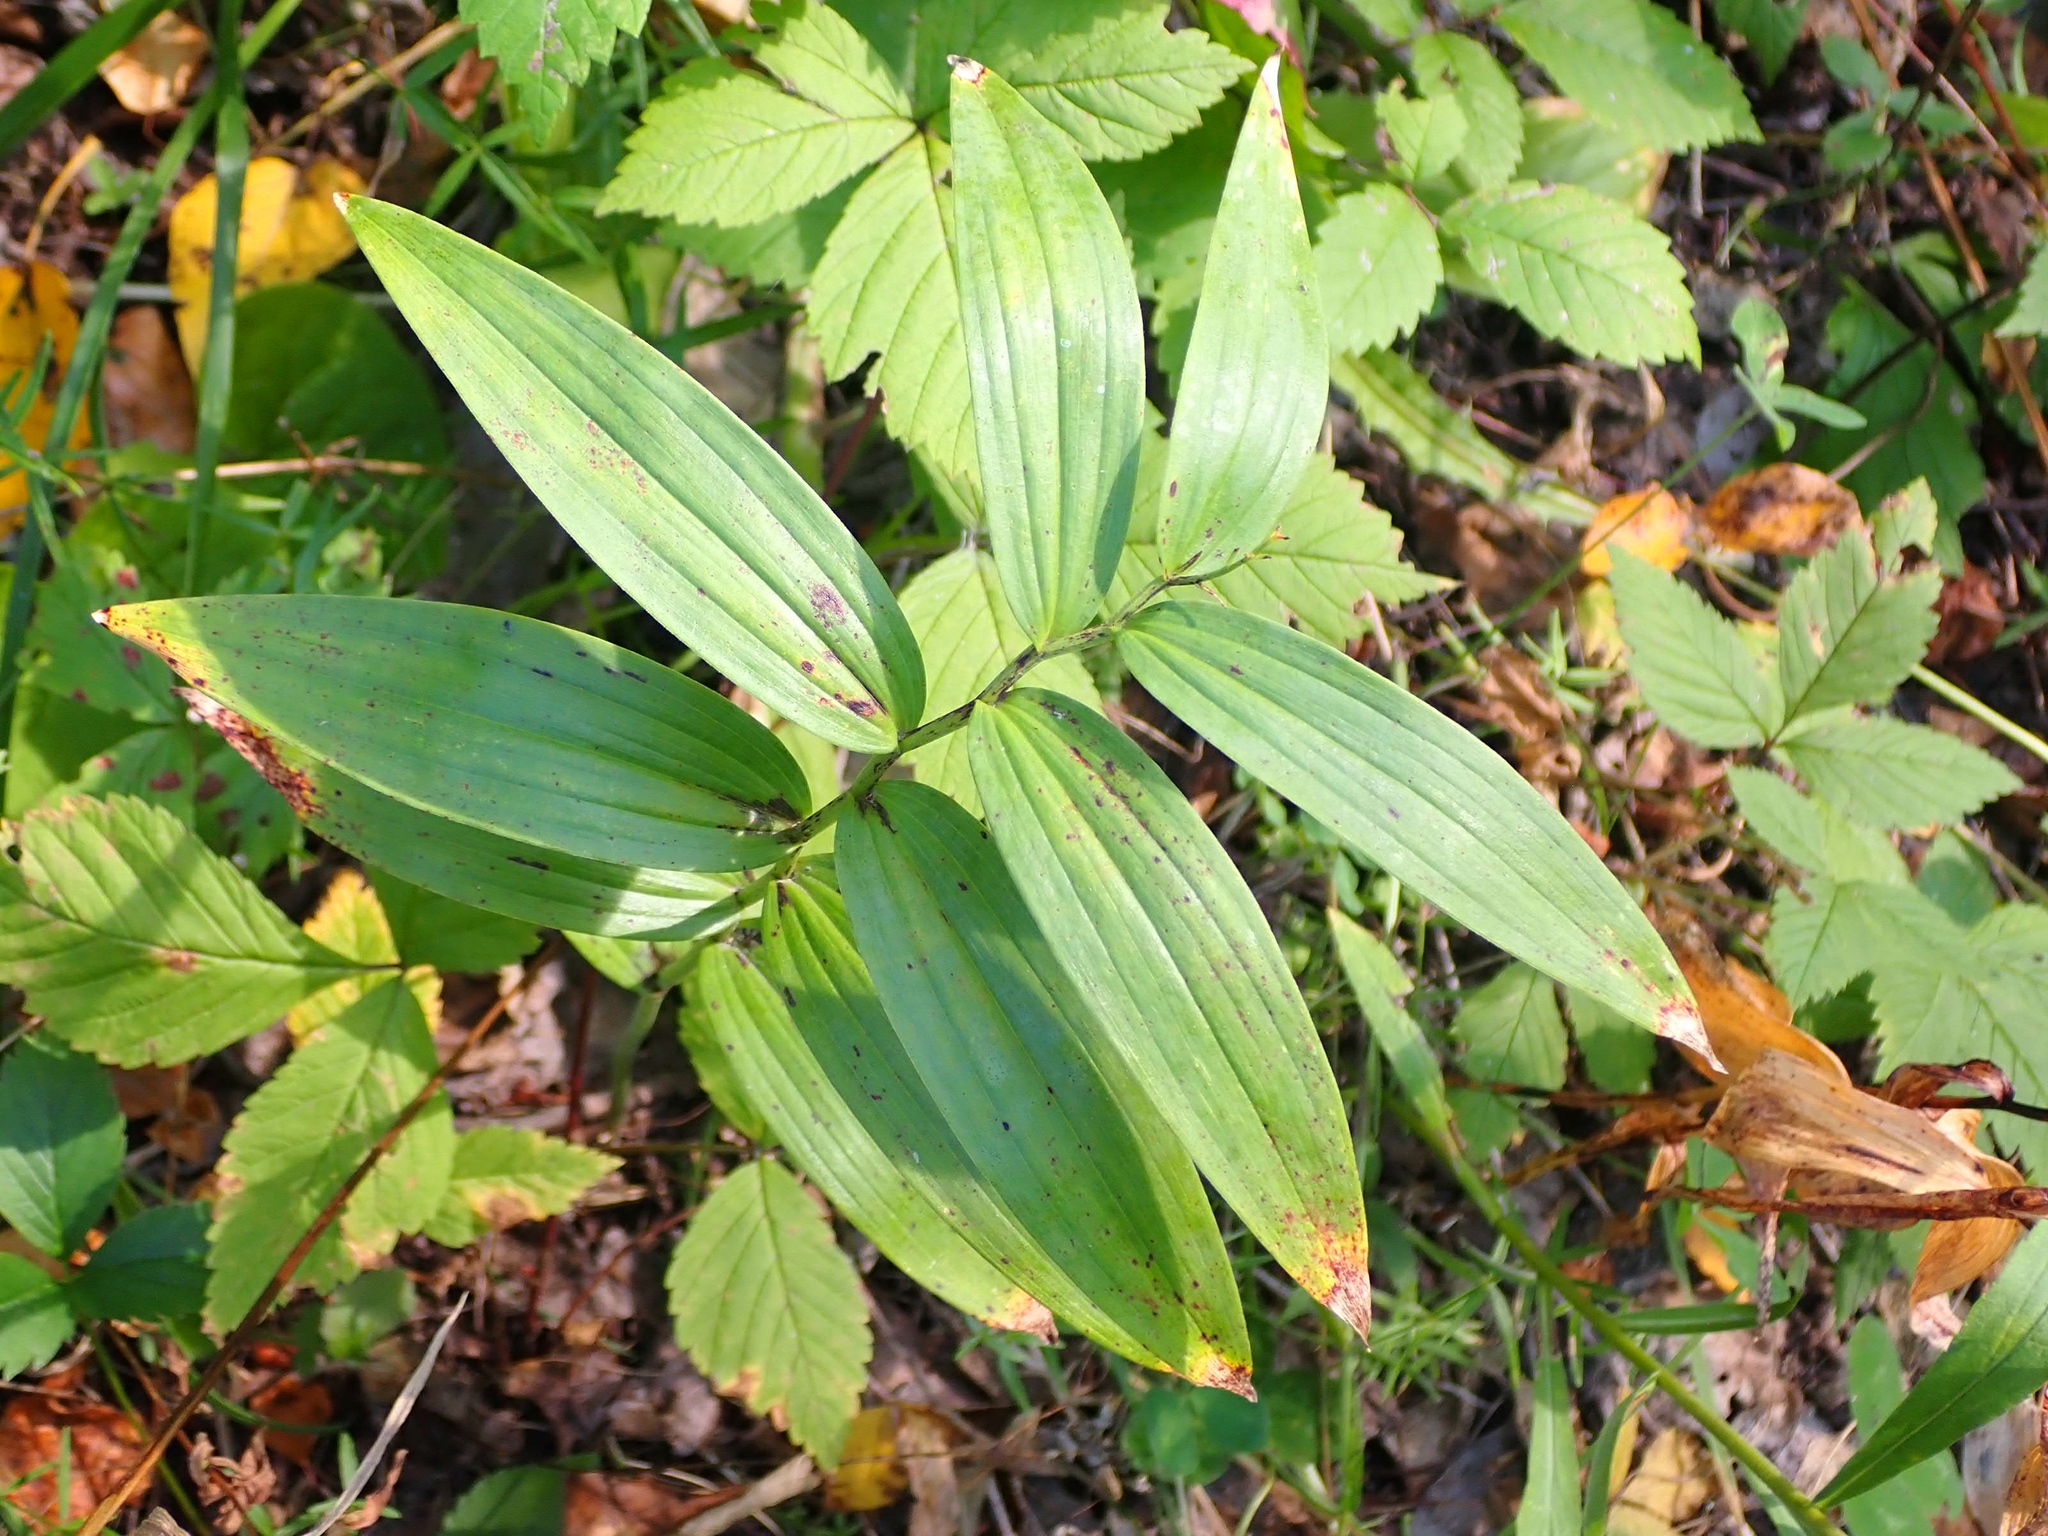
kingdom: Plantae
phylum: Tracheophyta
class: Liliopsida
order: Asparagales
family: Asparagaceae
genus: Maianthemum
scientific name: Maianthemum stellatum
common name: Little false solomon's seal
